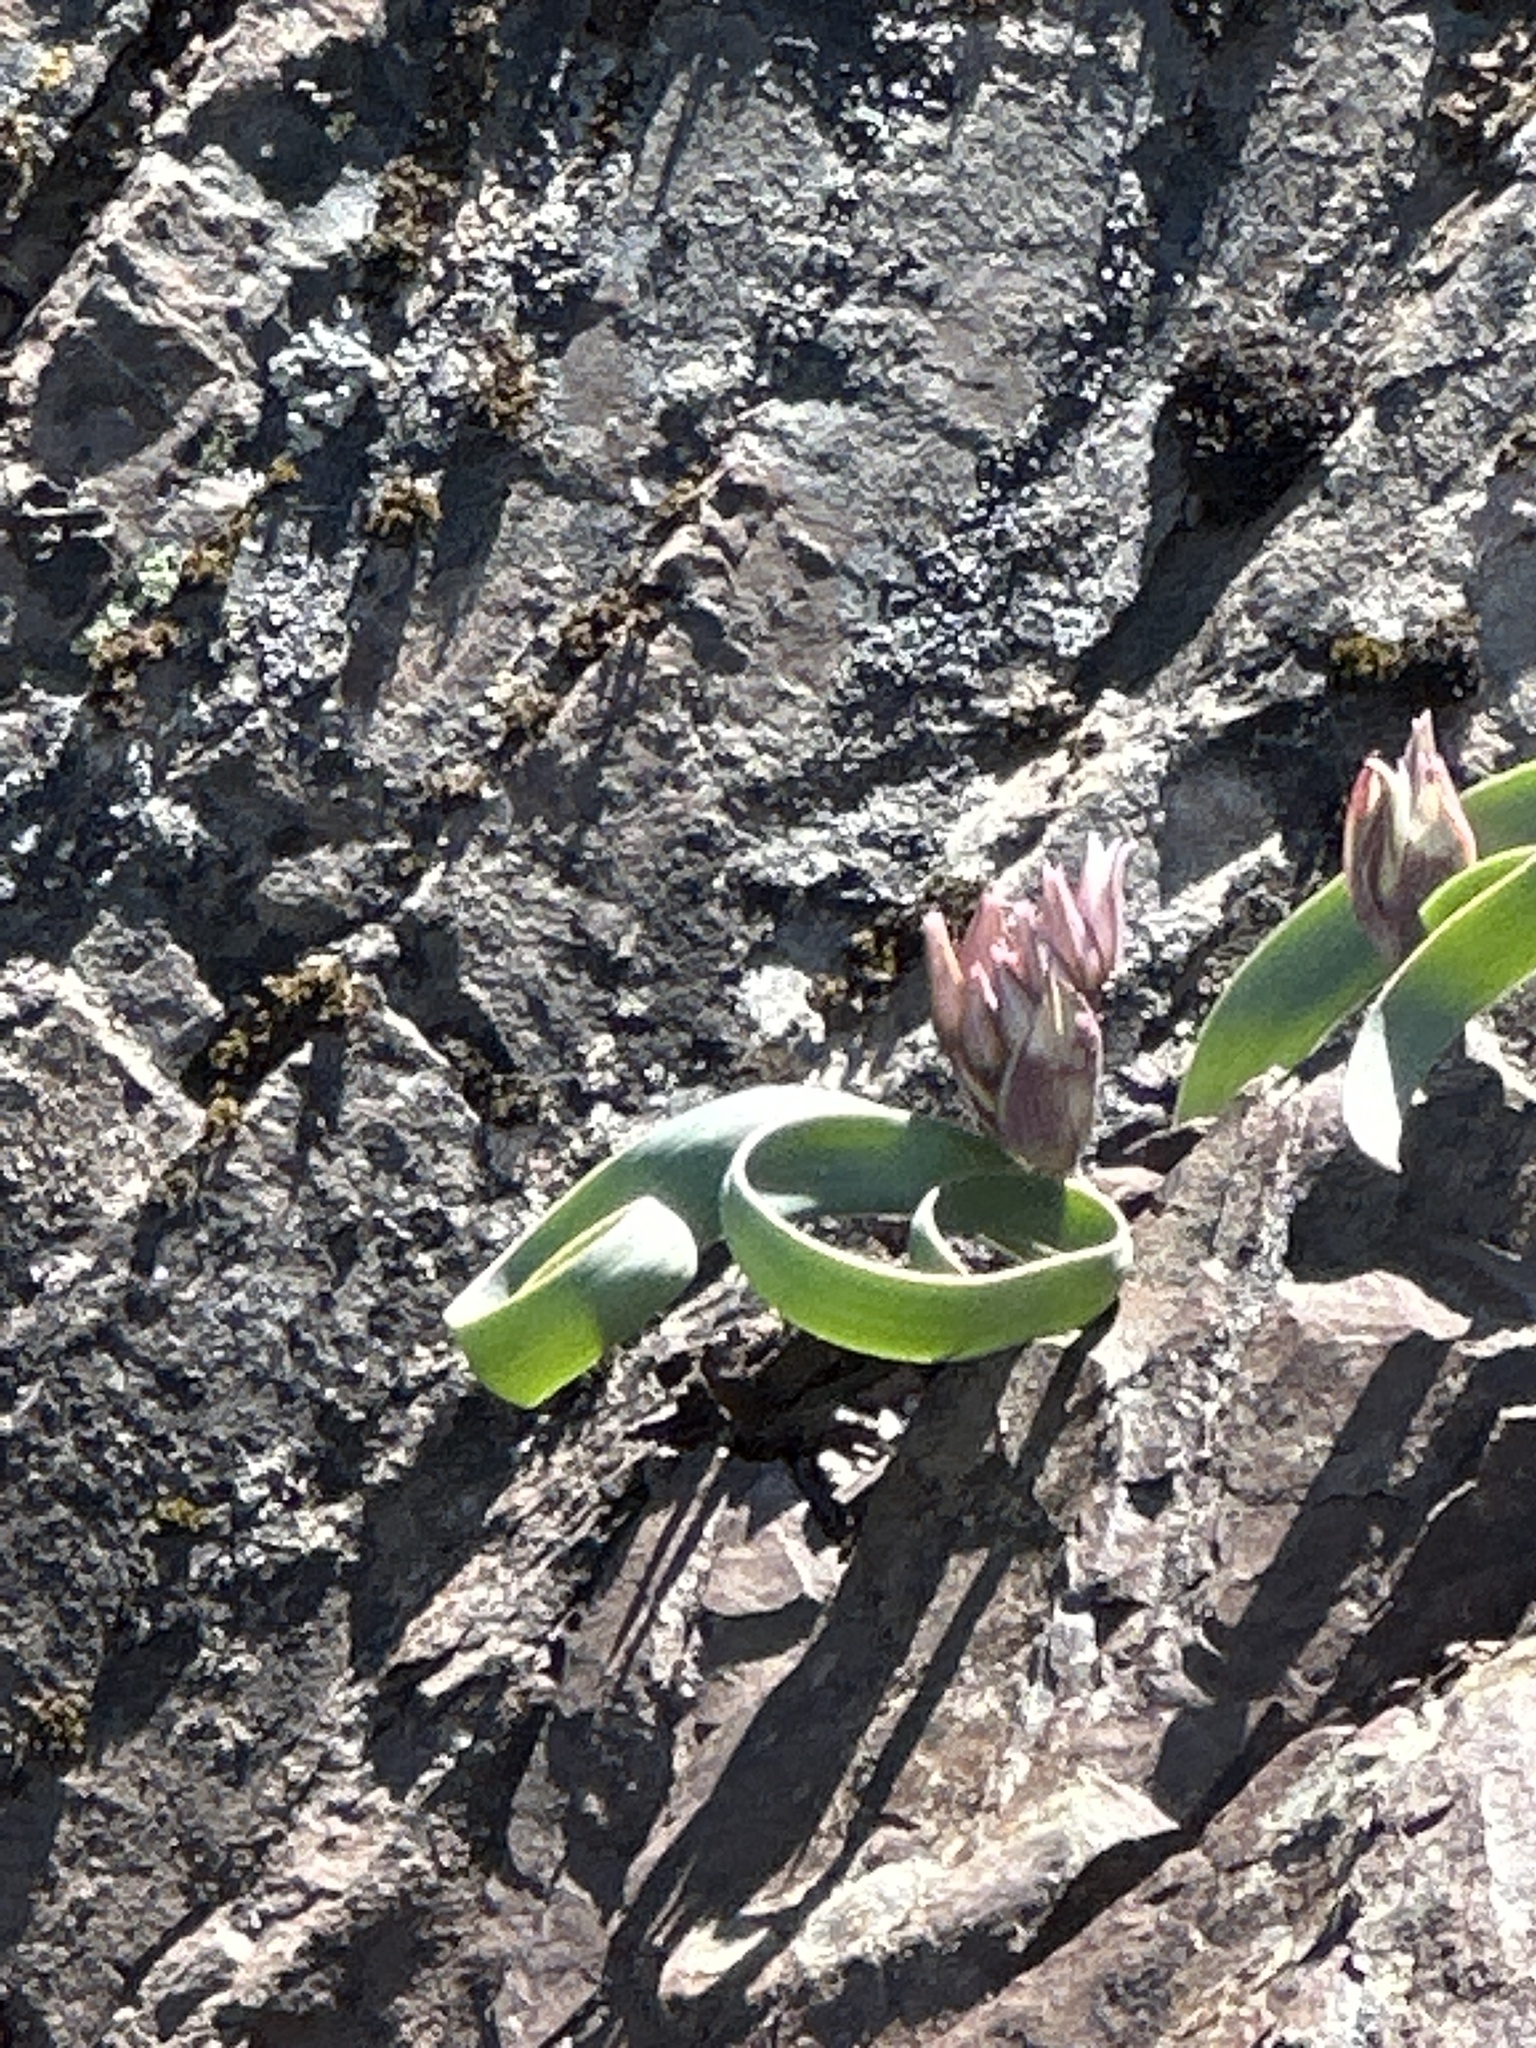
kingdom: Plantae
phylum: Tracheophyta
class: Liliopsida
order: Asparagales
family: Amaryllidaceae
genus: Allium
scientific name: Allium falcifolium
